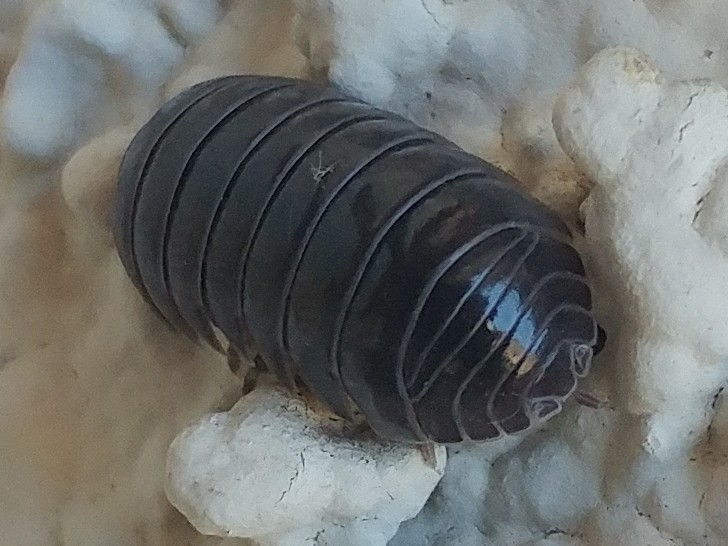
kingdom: Animalia
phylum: Arthropoda
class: Malacostraca
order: Isopoda
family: Armadillidiidae
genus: Armadillidium
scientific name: Armadillidium vulgare
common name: Common pill woodlouse
